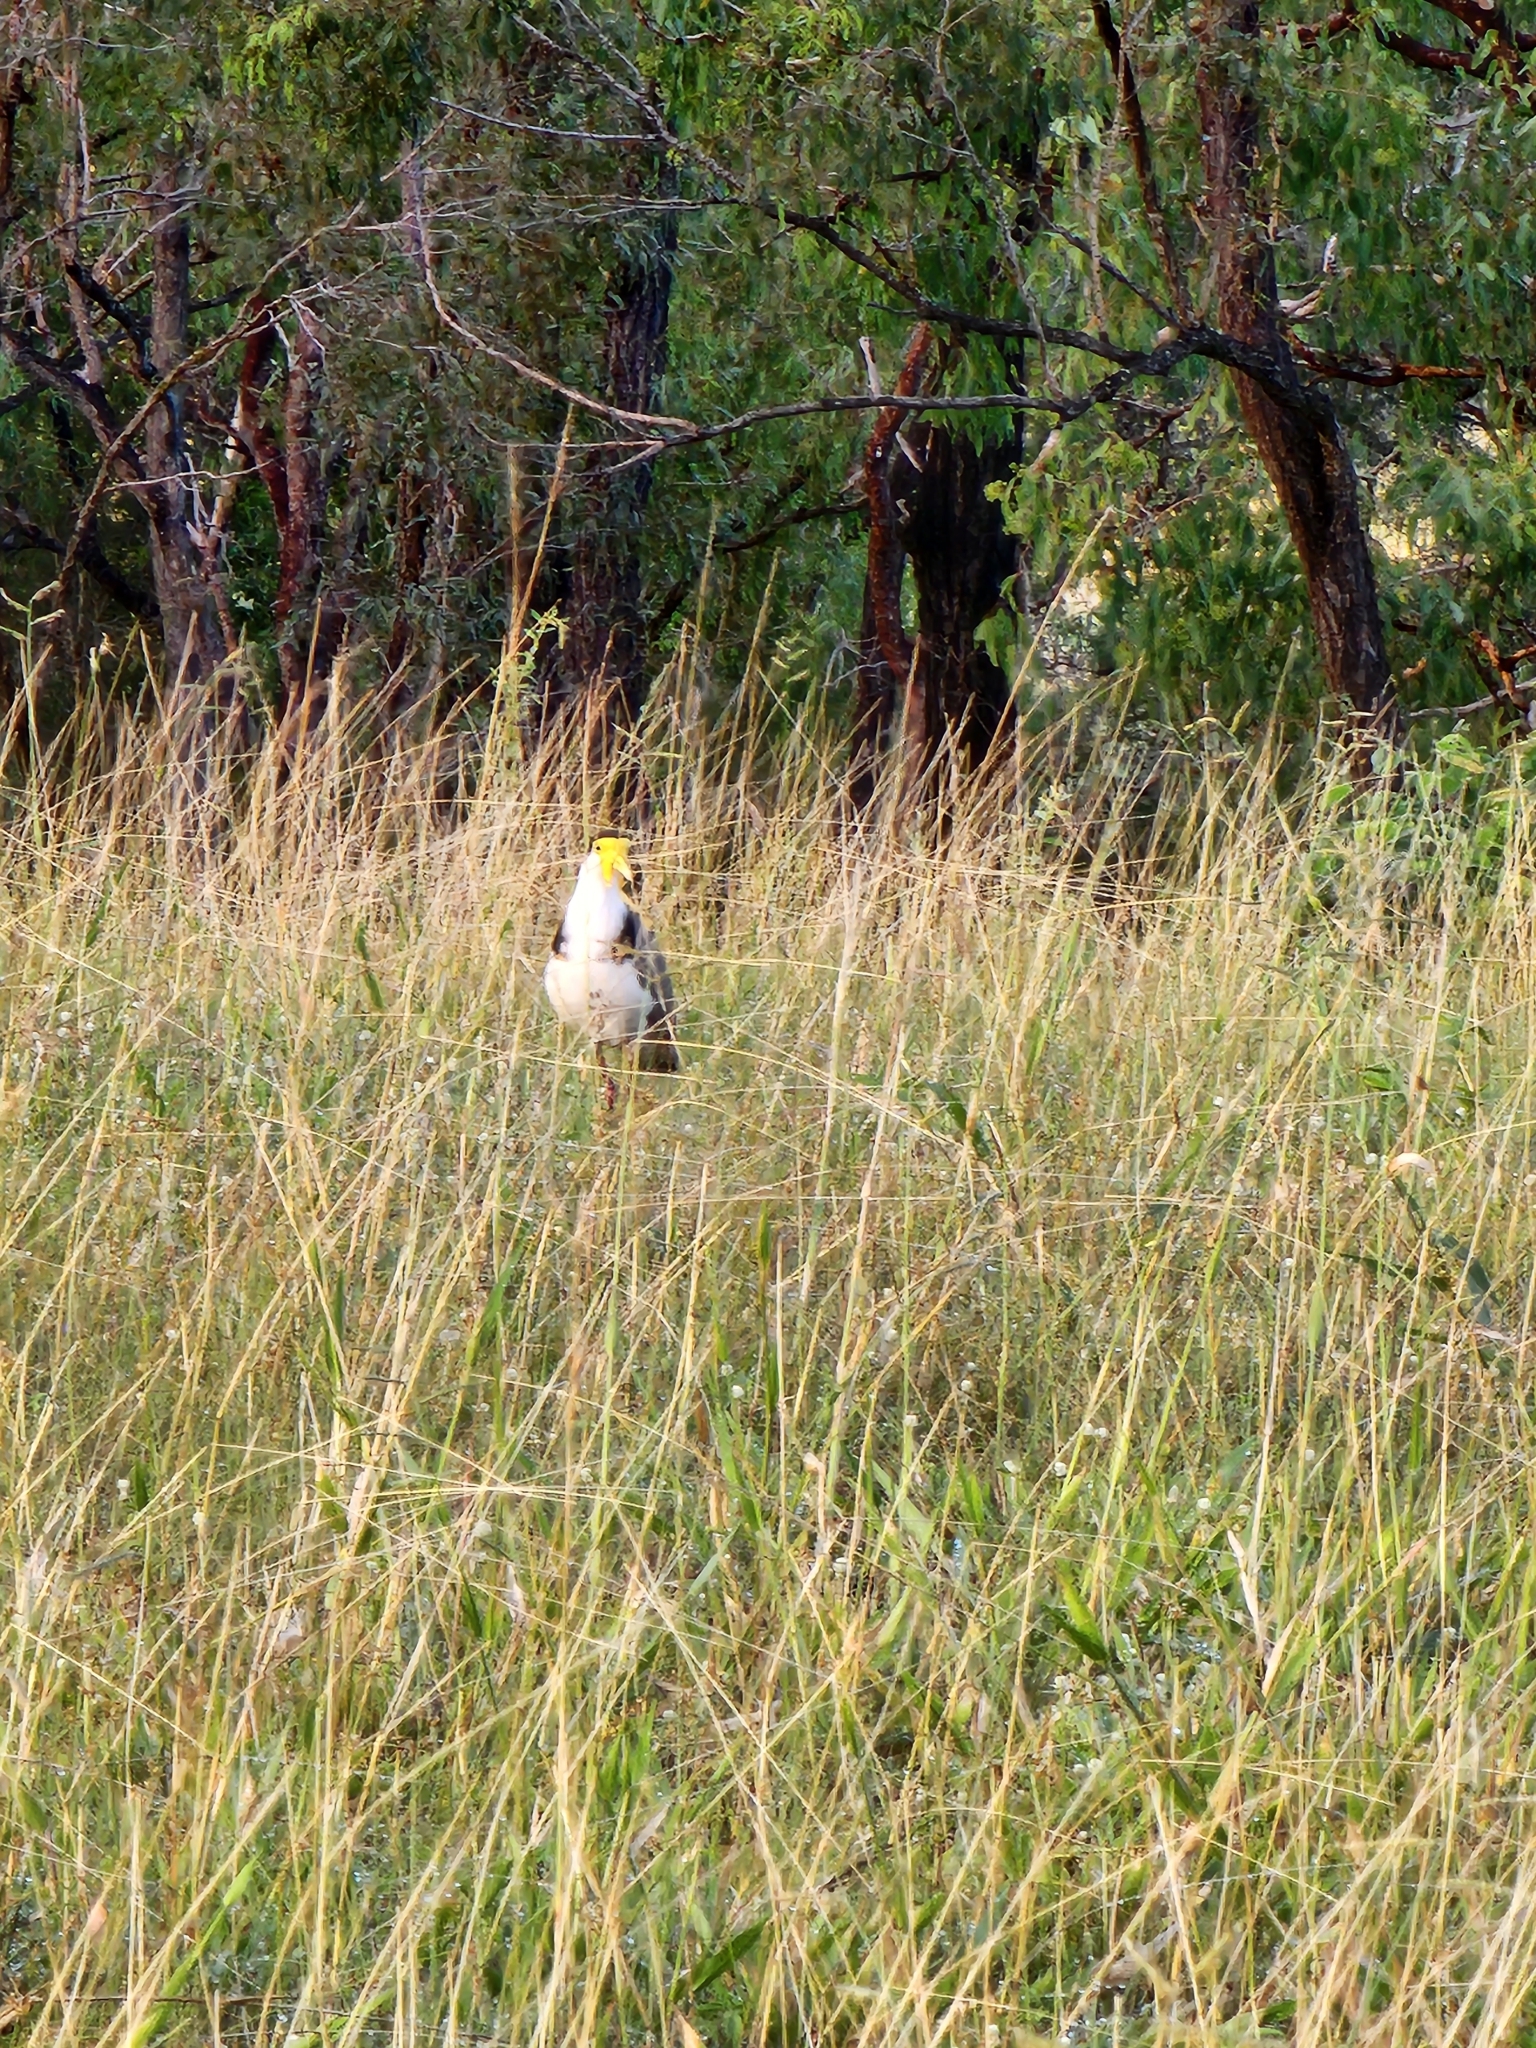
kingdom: Animalia
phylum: Chordata
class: Aves
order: Charadriiformes
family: Charadriidae
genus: Vanellus
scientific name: Vanellus miles
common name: Masked lapwing
